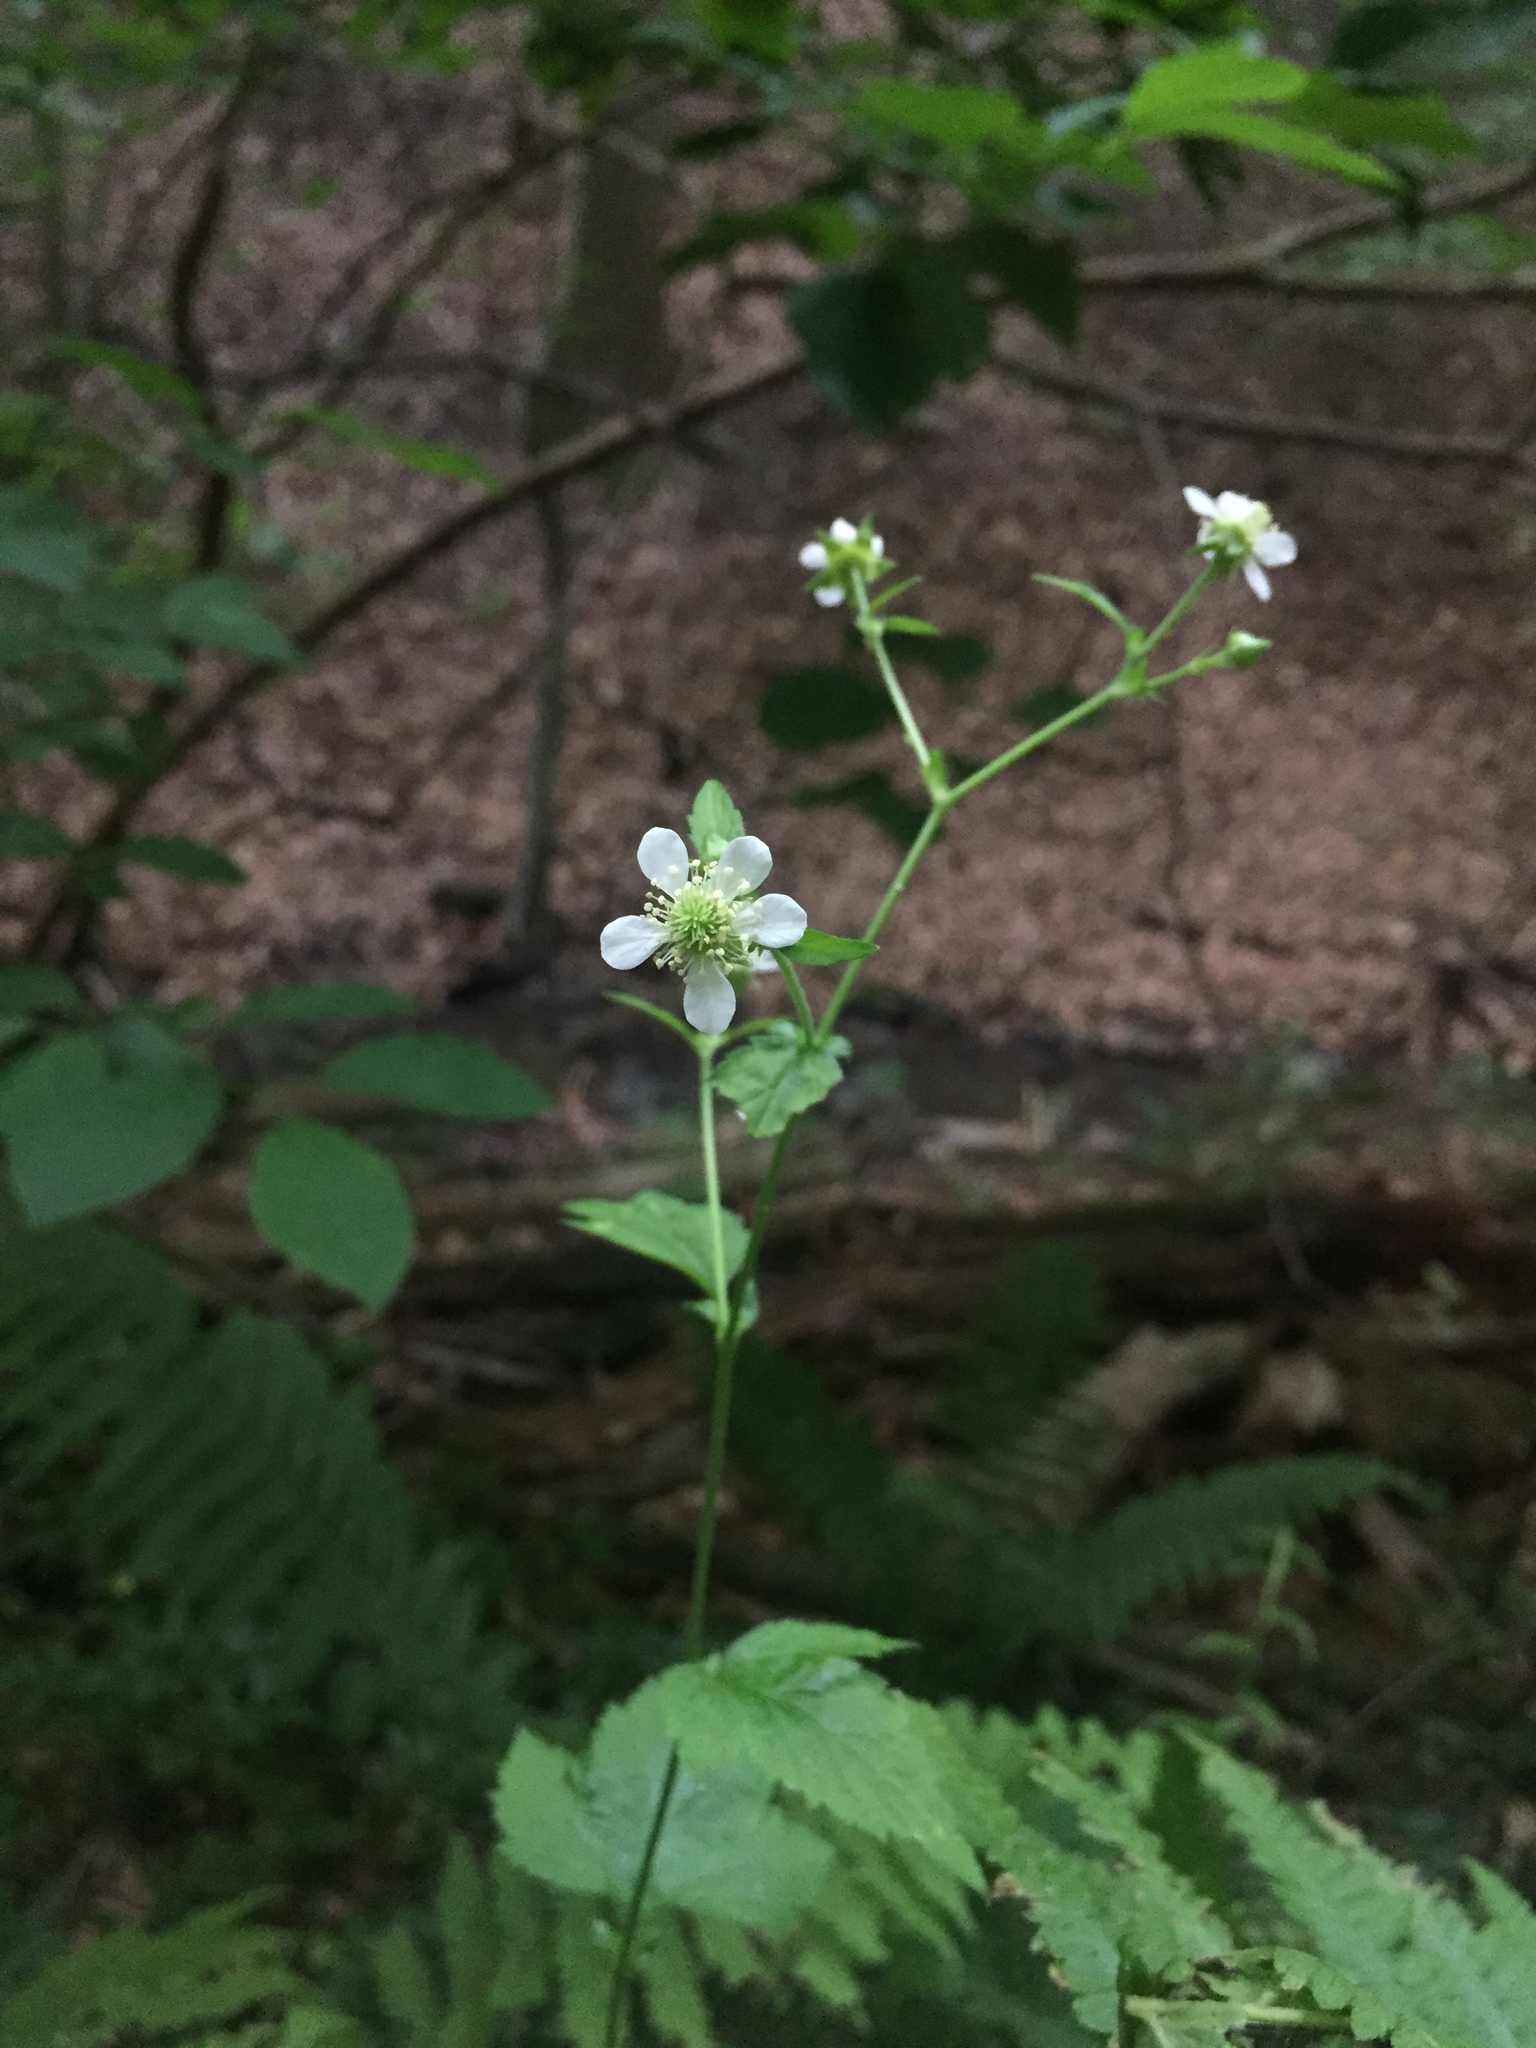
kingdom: Plantae
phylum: Tracheophyta
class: Magnoliopsida
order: Rosales
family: Rosaceae
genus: Geum
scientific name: Geum canadense
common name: White avens
